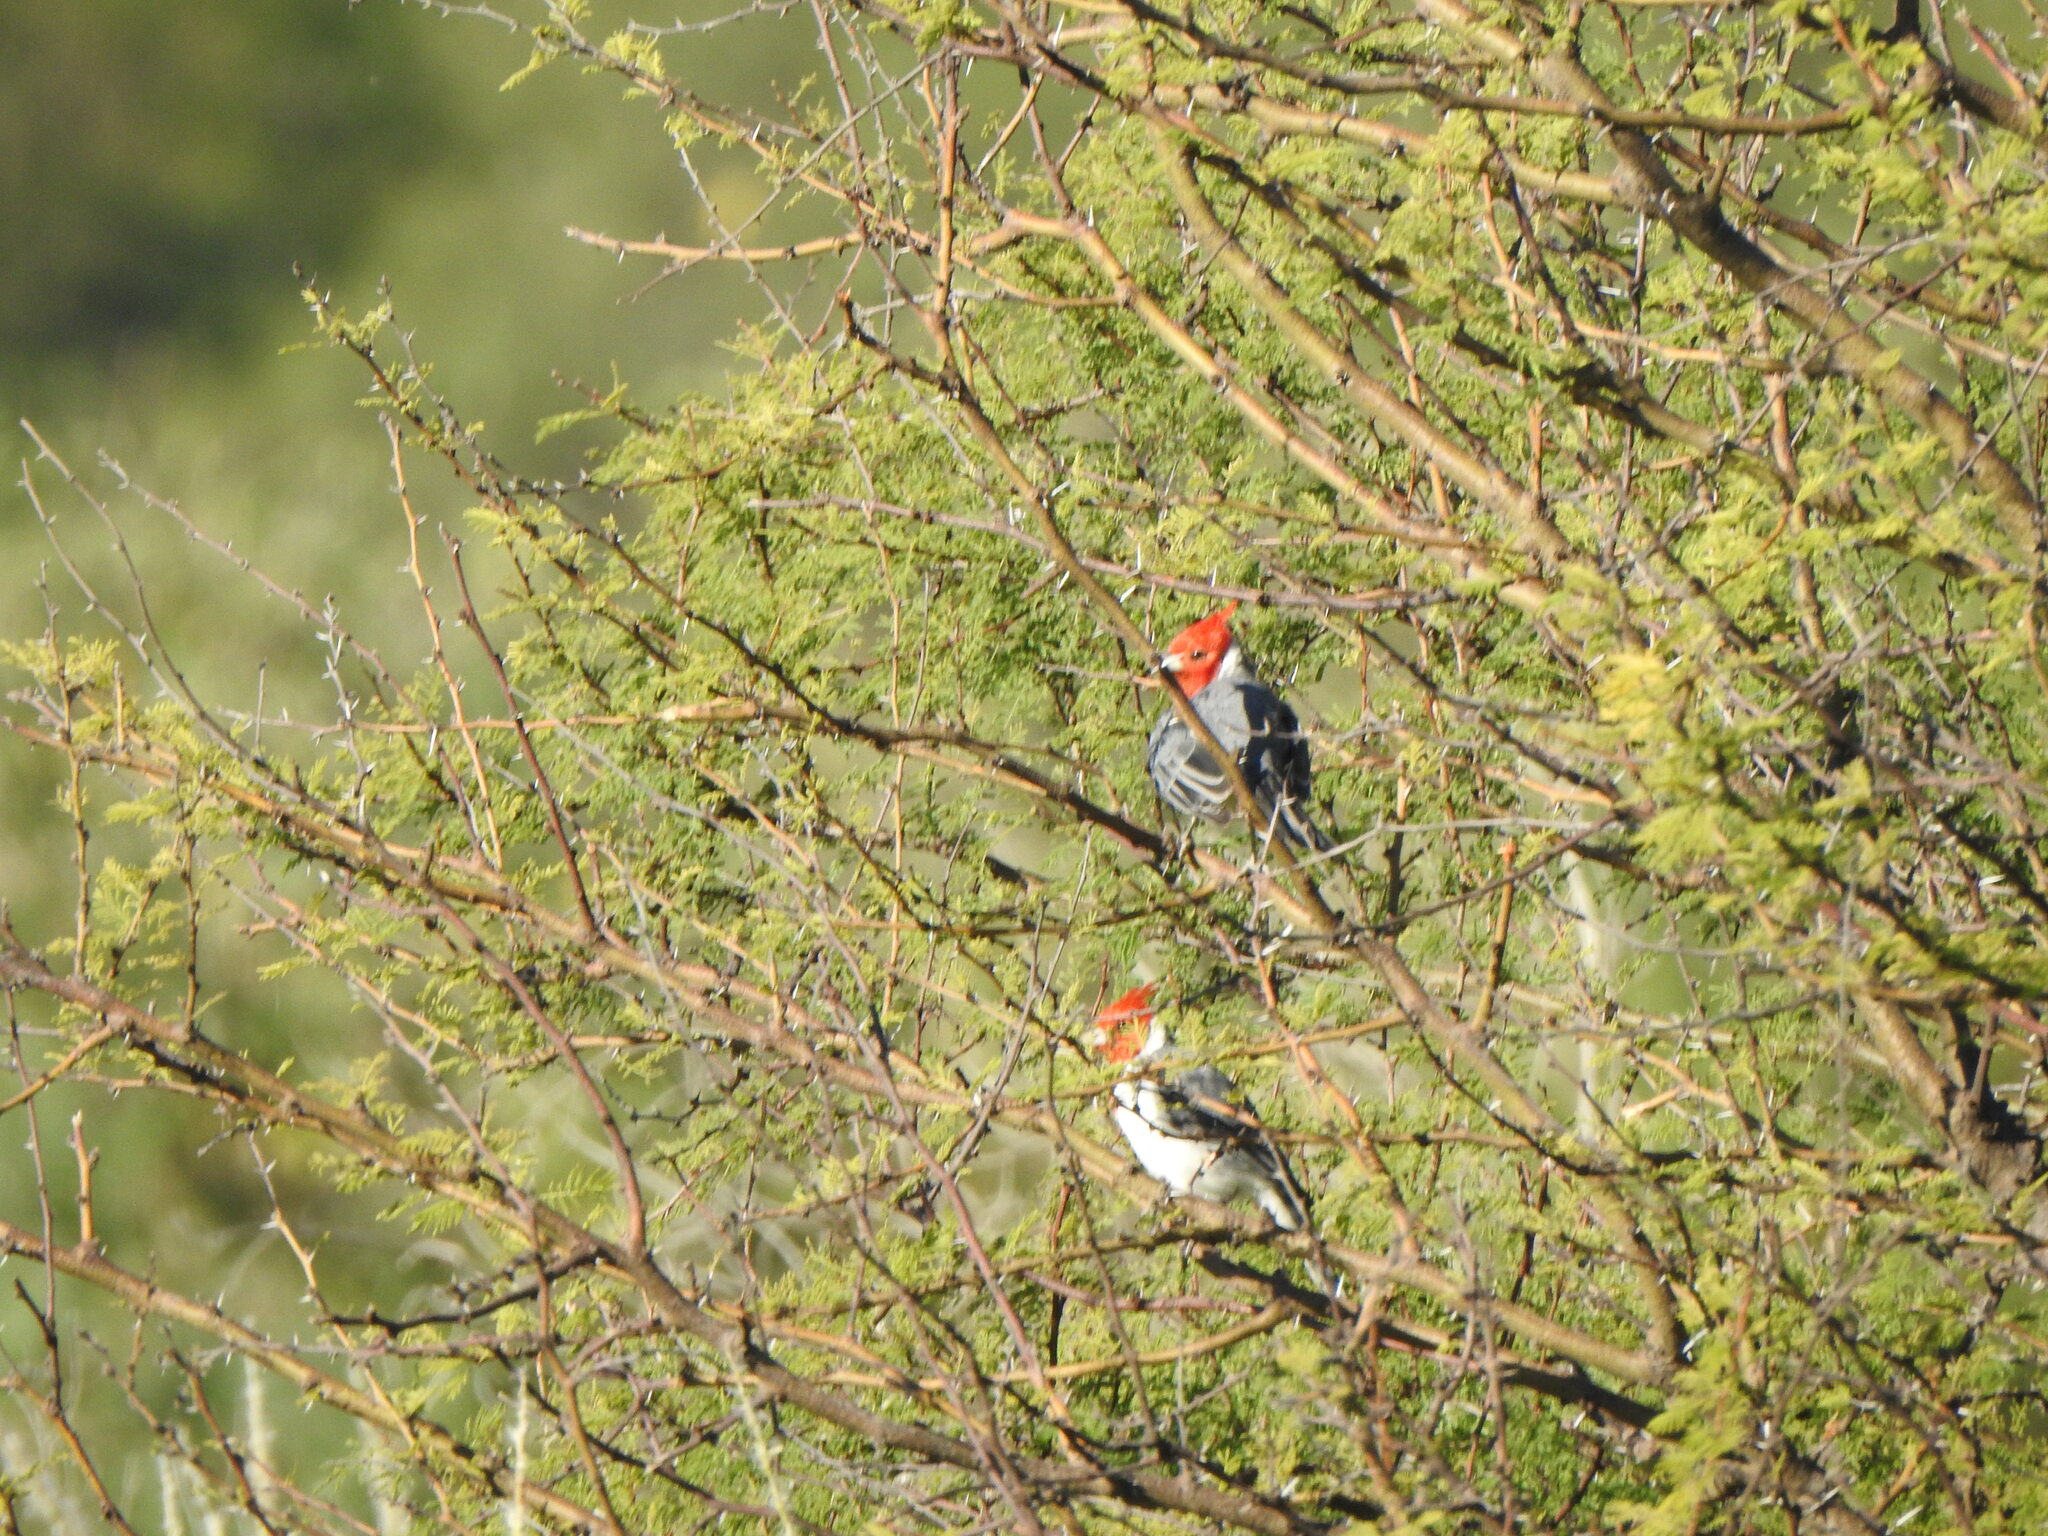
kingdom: Animalia
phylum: Chordata
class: Aves
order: Passeriformes
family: Thraupidae
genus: Paroaria
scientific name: Paroaria coronata
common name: Red-crested cardinal
